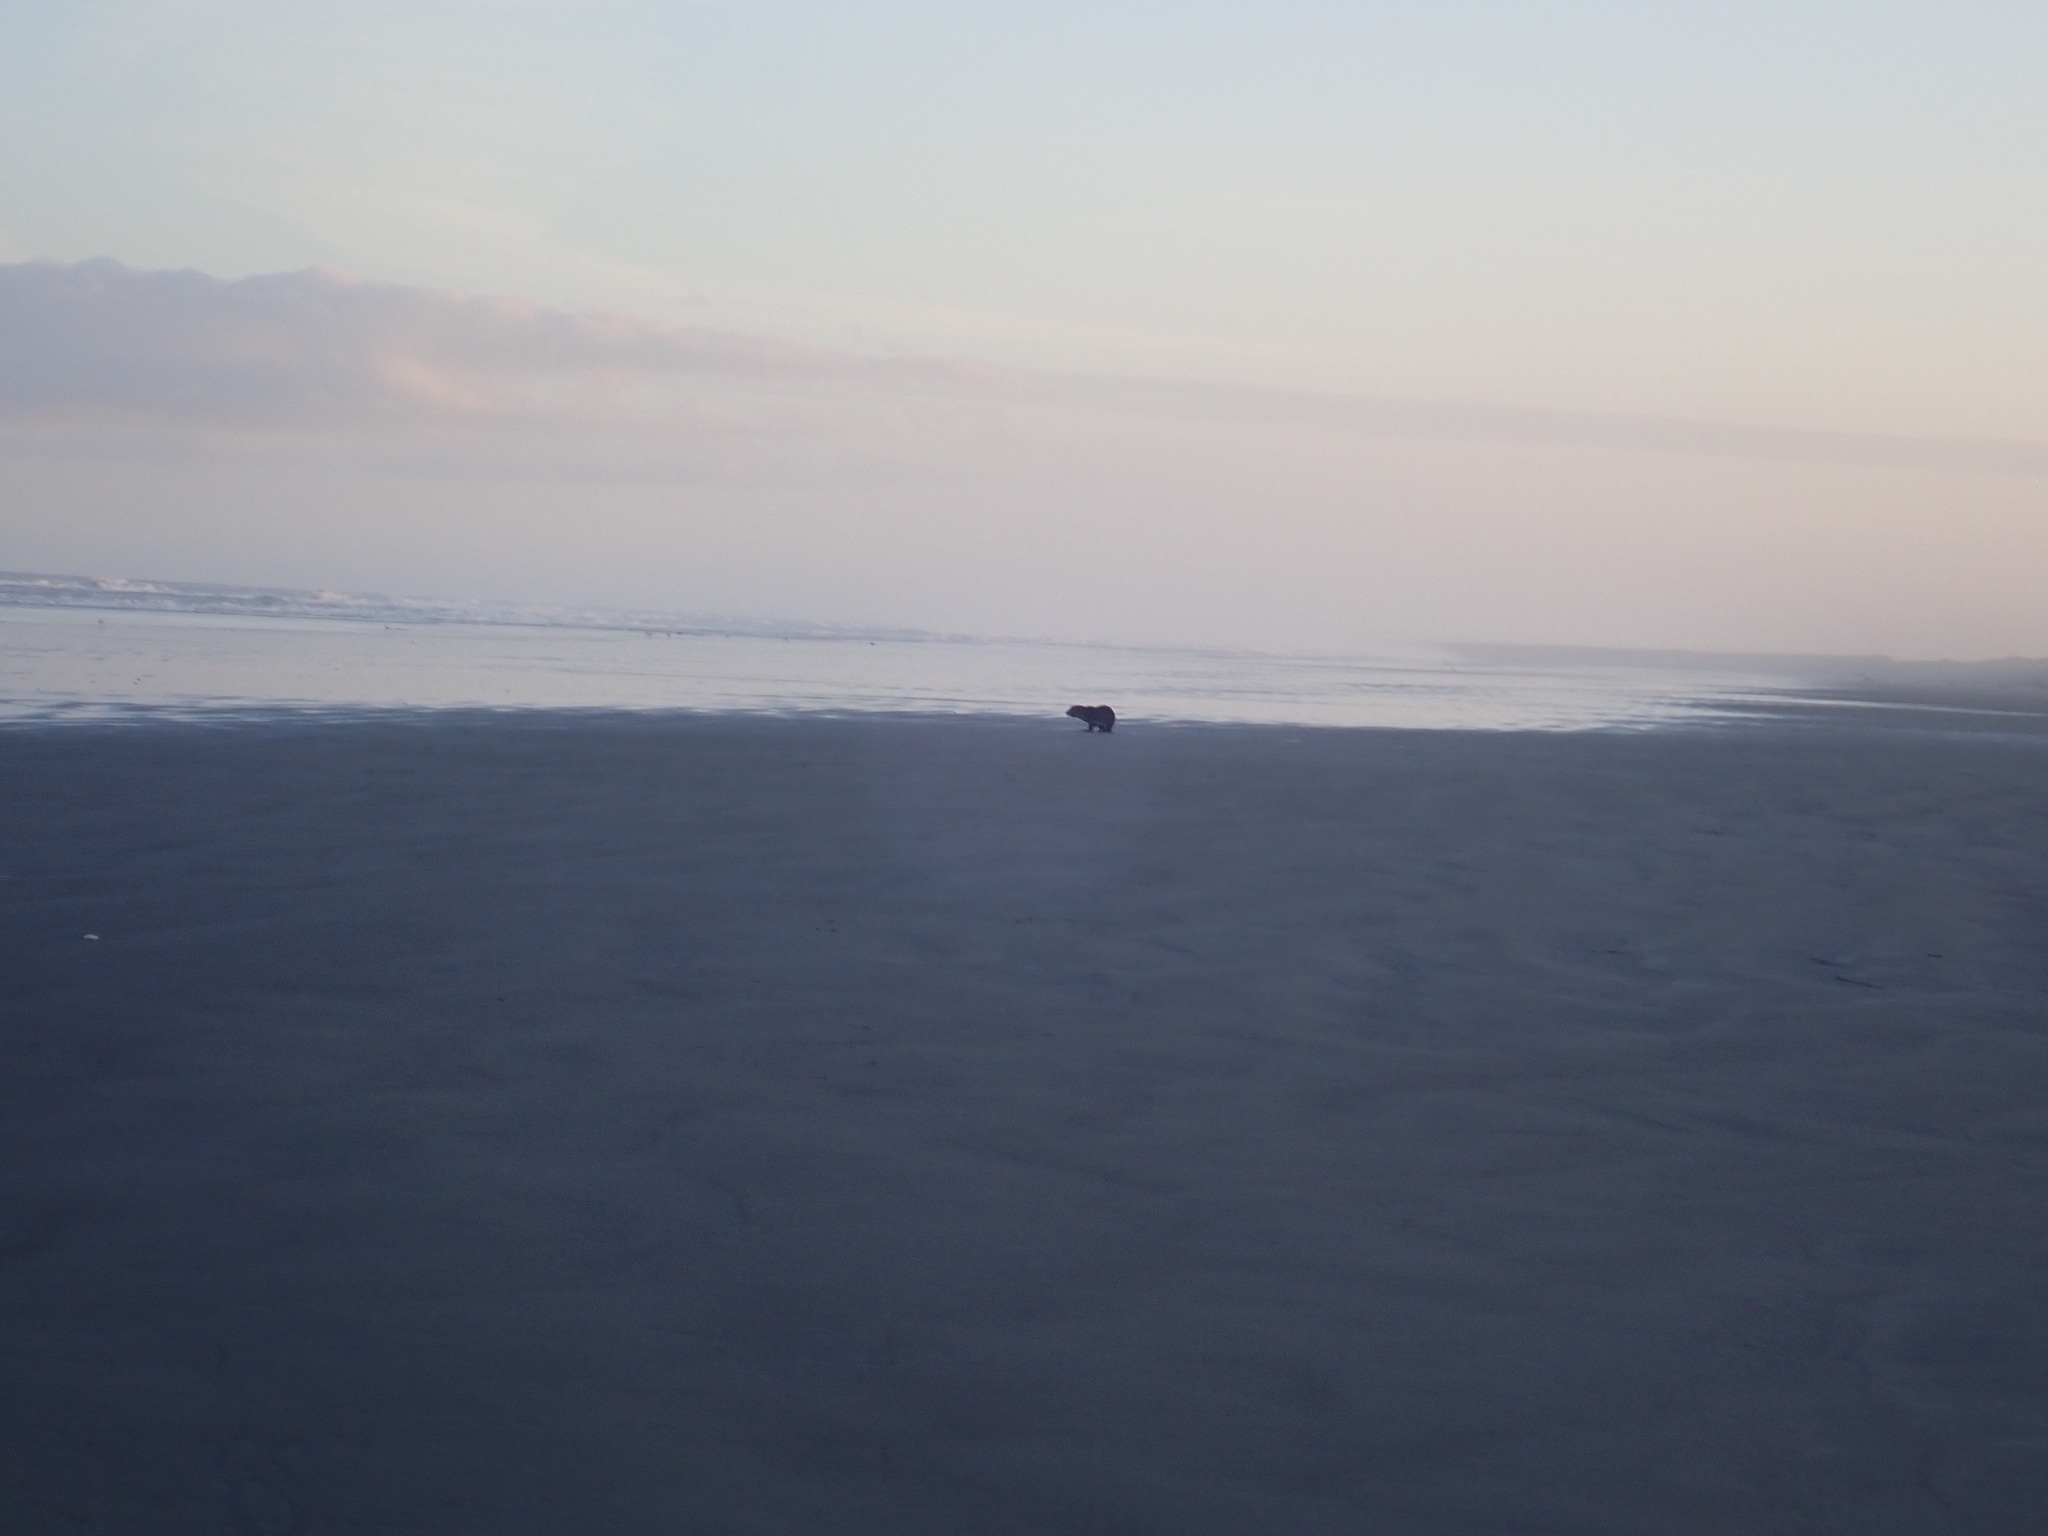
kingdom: Animalia
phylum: Chordata
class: Mammalia
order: Carnivora
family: Otariidae
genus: Arctocephalus
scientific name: Arctocephalus forsteri
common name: New zealand fur seal
